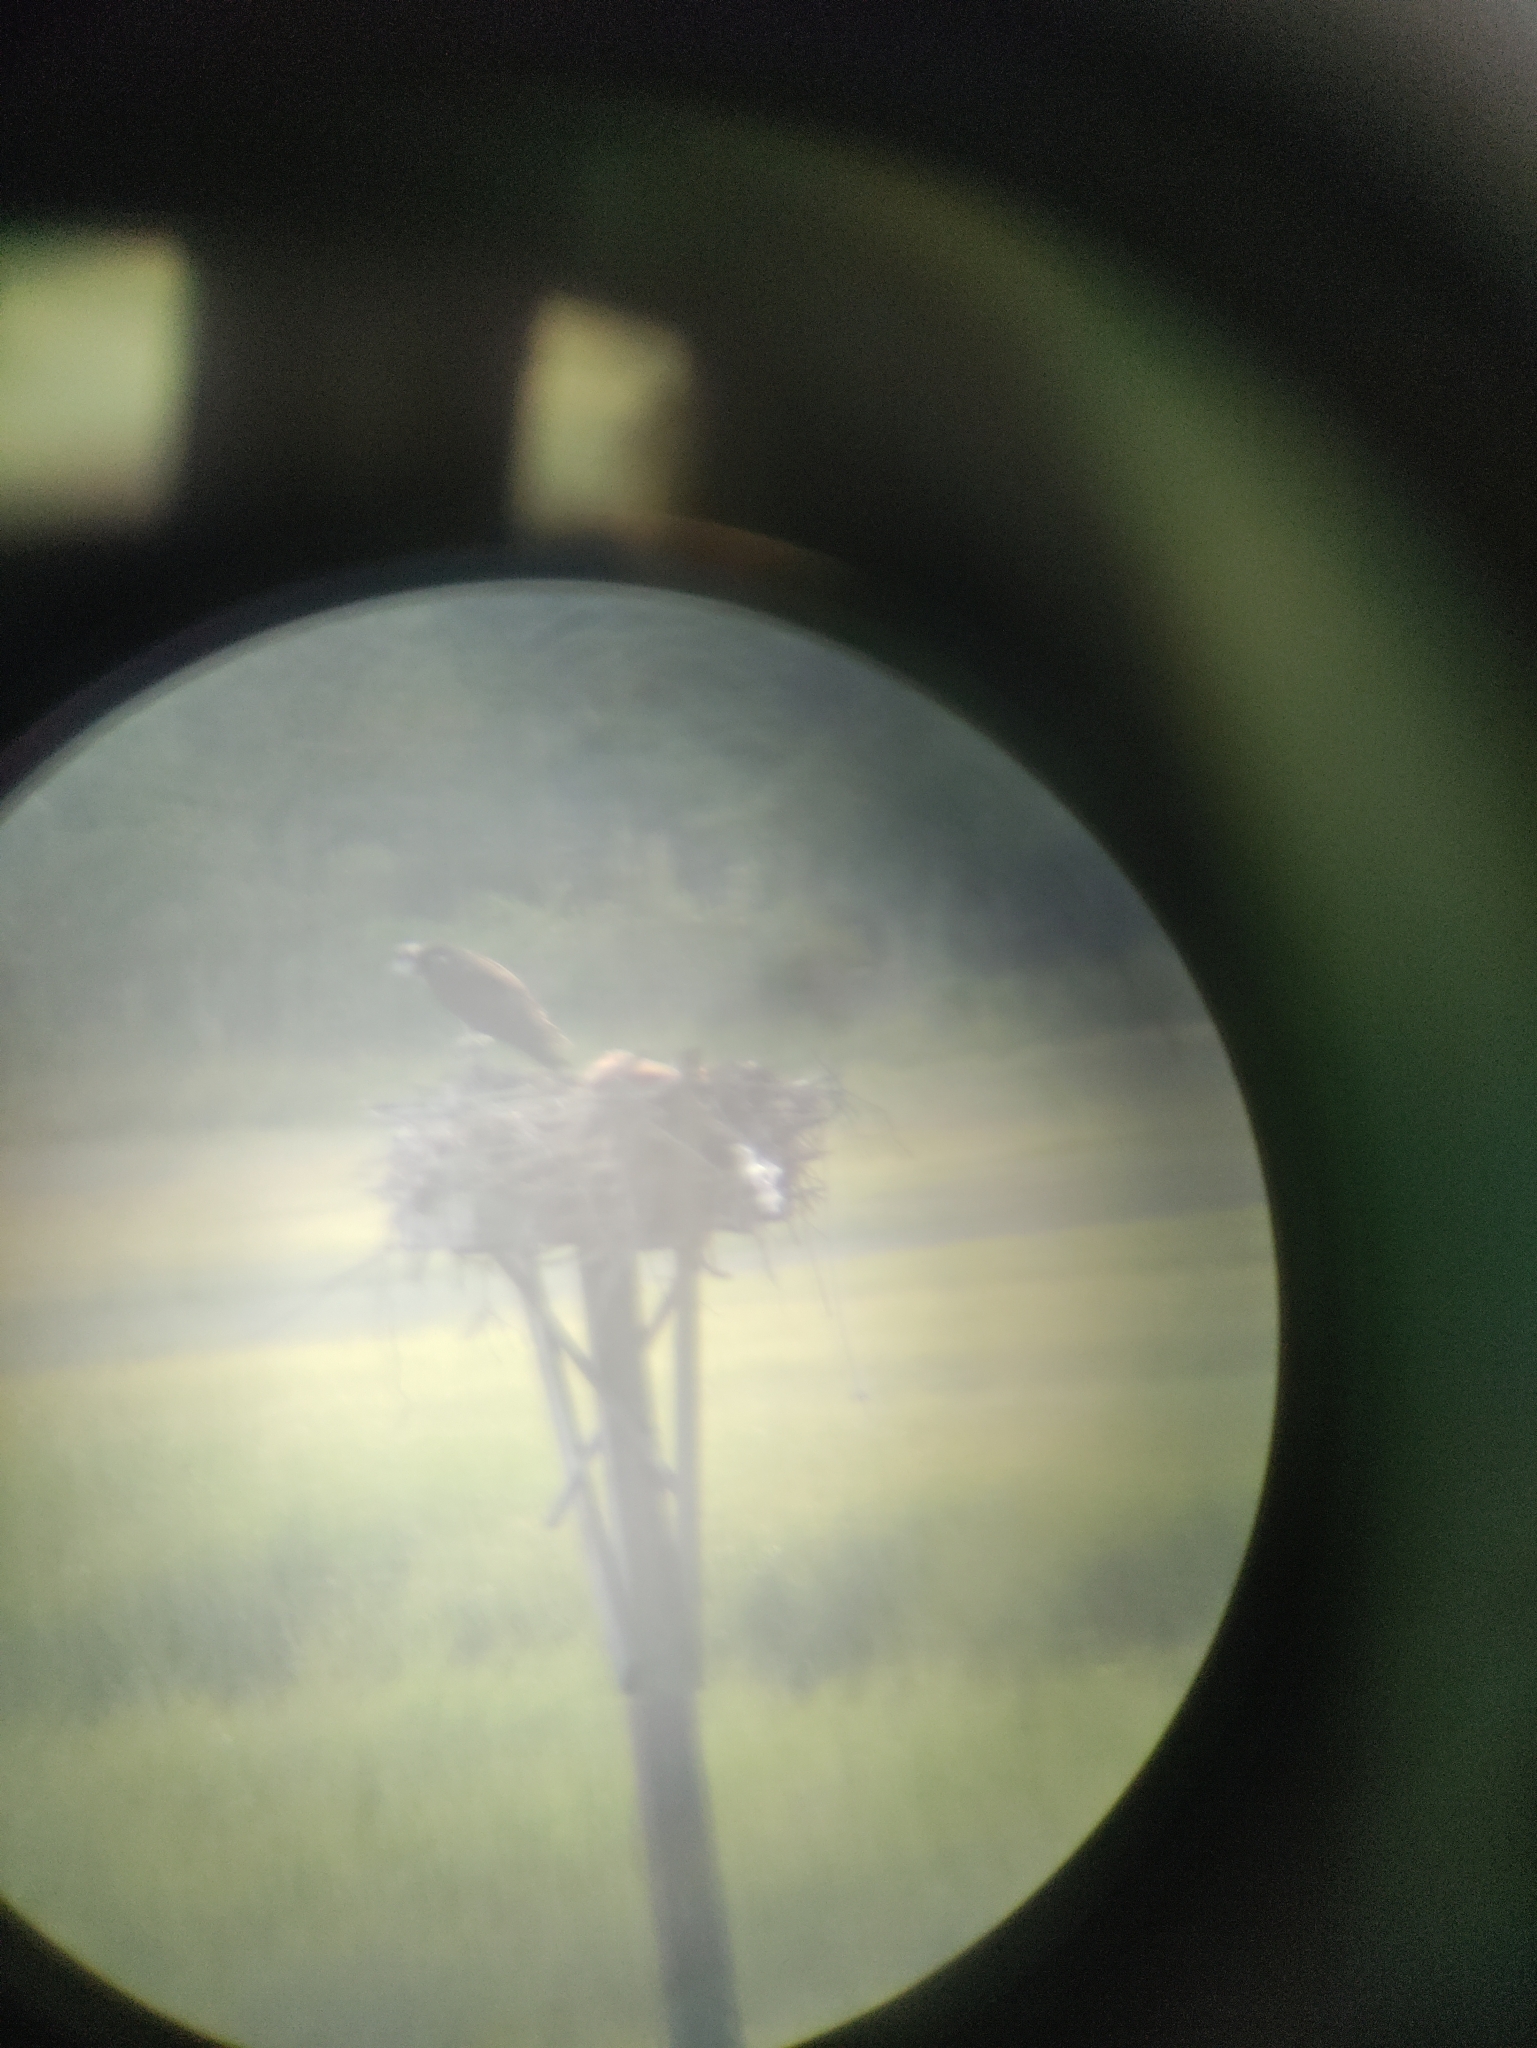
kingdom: Animalia
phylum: Chordata
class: Aves
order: Accipitriformes
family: Pandionidae
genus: Pandion
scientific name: Pandion haliaetus
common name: Osprey
